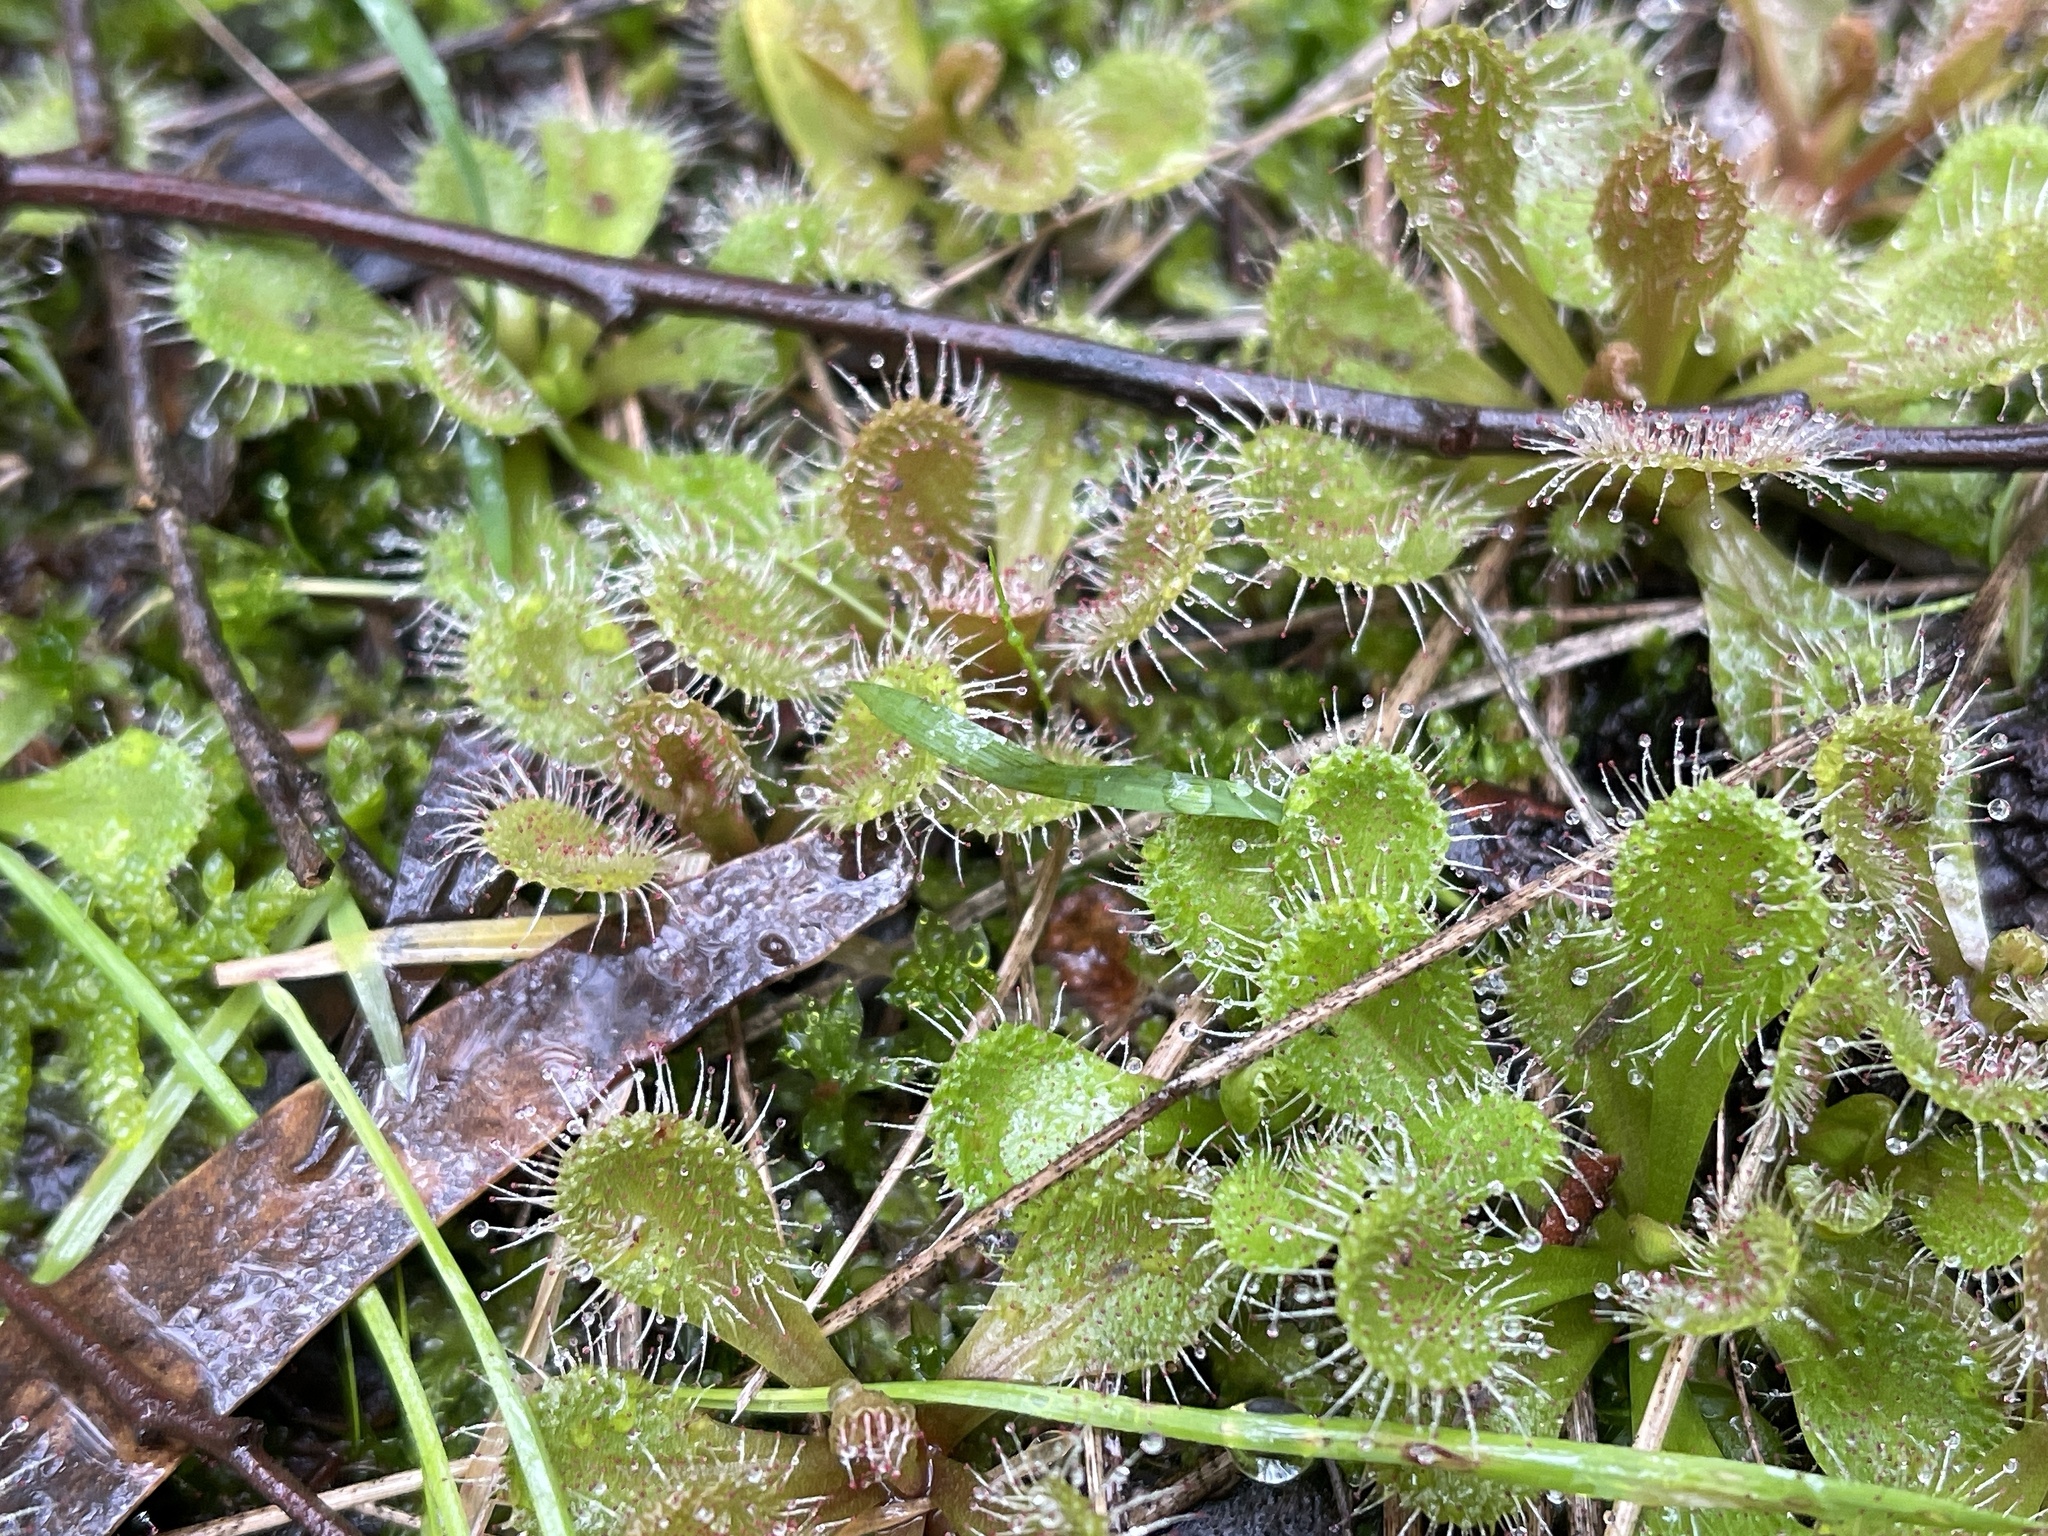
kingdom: Plantae
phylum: Tracheophyta
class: Magnoliopsida
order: Caryophyllales
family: Droseraceae
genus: Drosera
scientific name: Drosera aberrans
